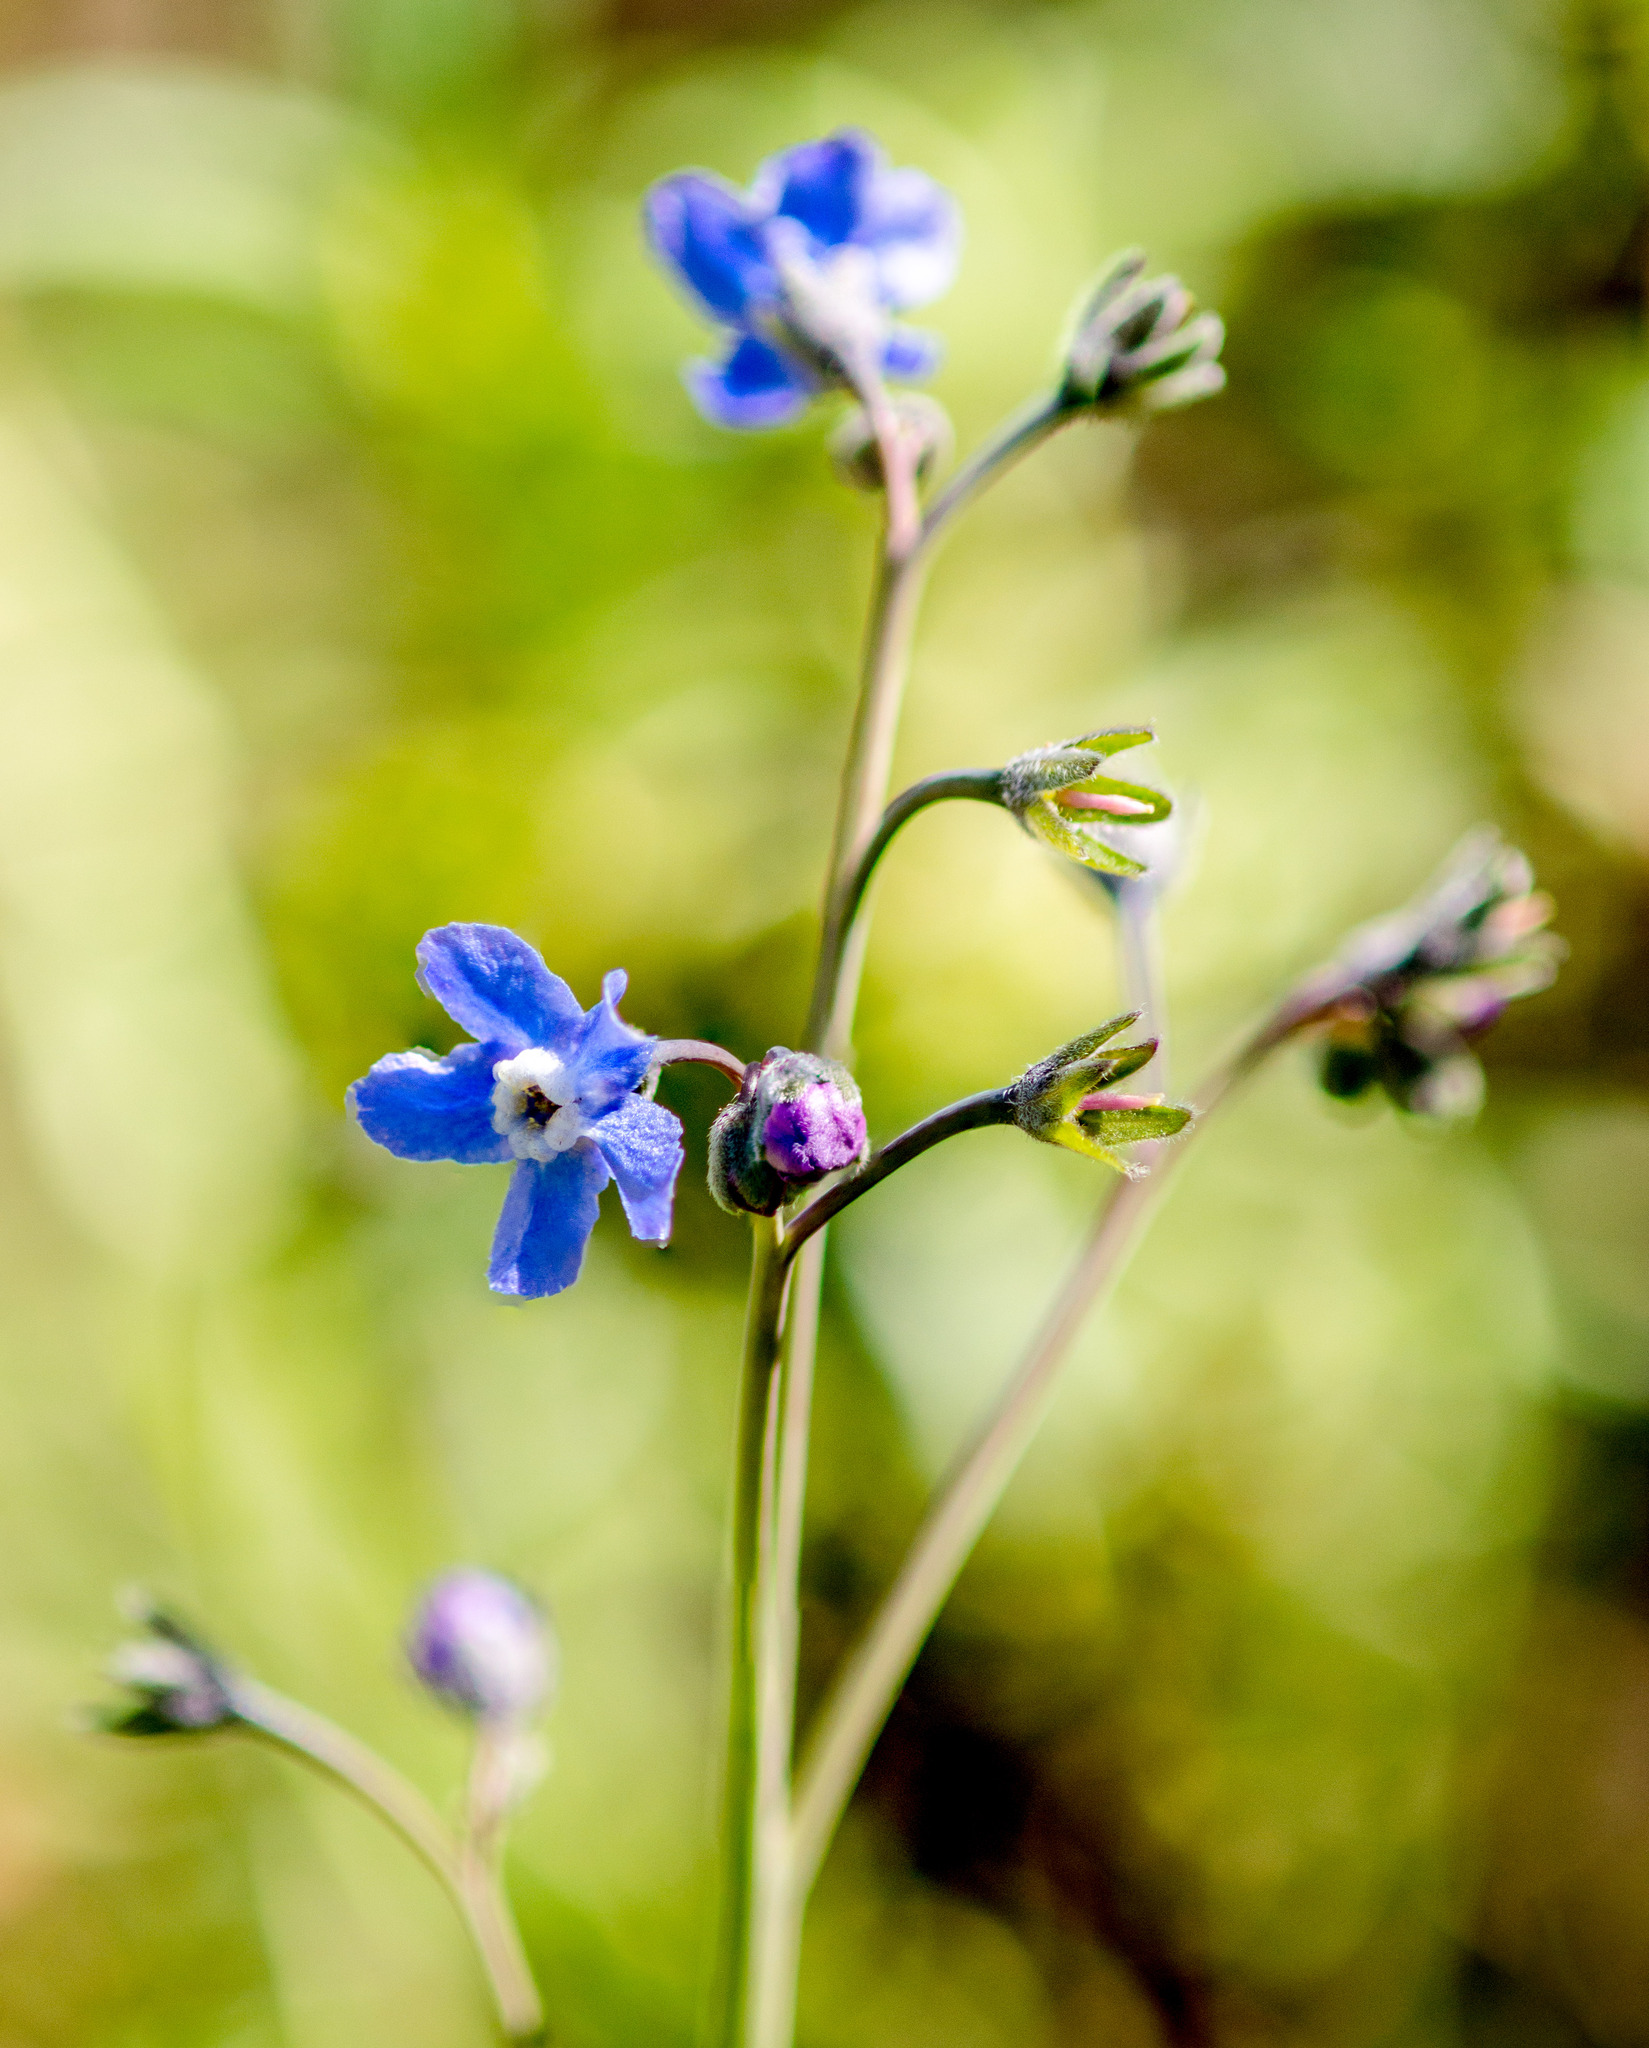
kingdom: Plantae
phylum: Tracheophyta
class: Magnoliopsida
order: Boraginales
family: Boraginaceae
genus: Adelinia
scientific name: Adelinia grande
